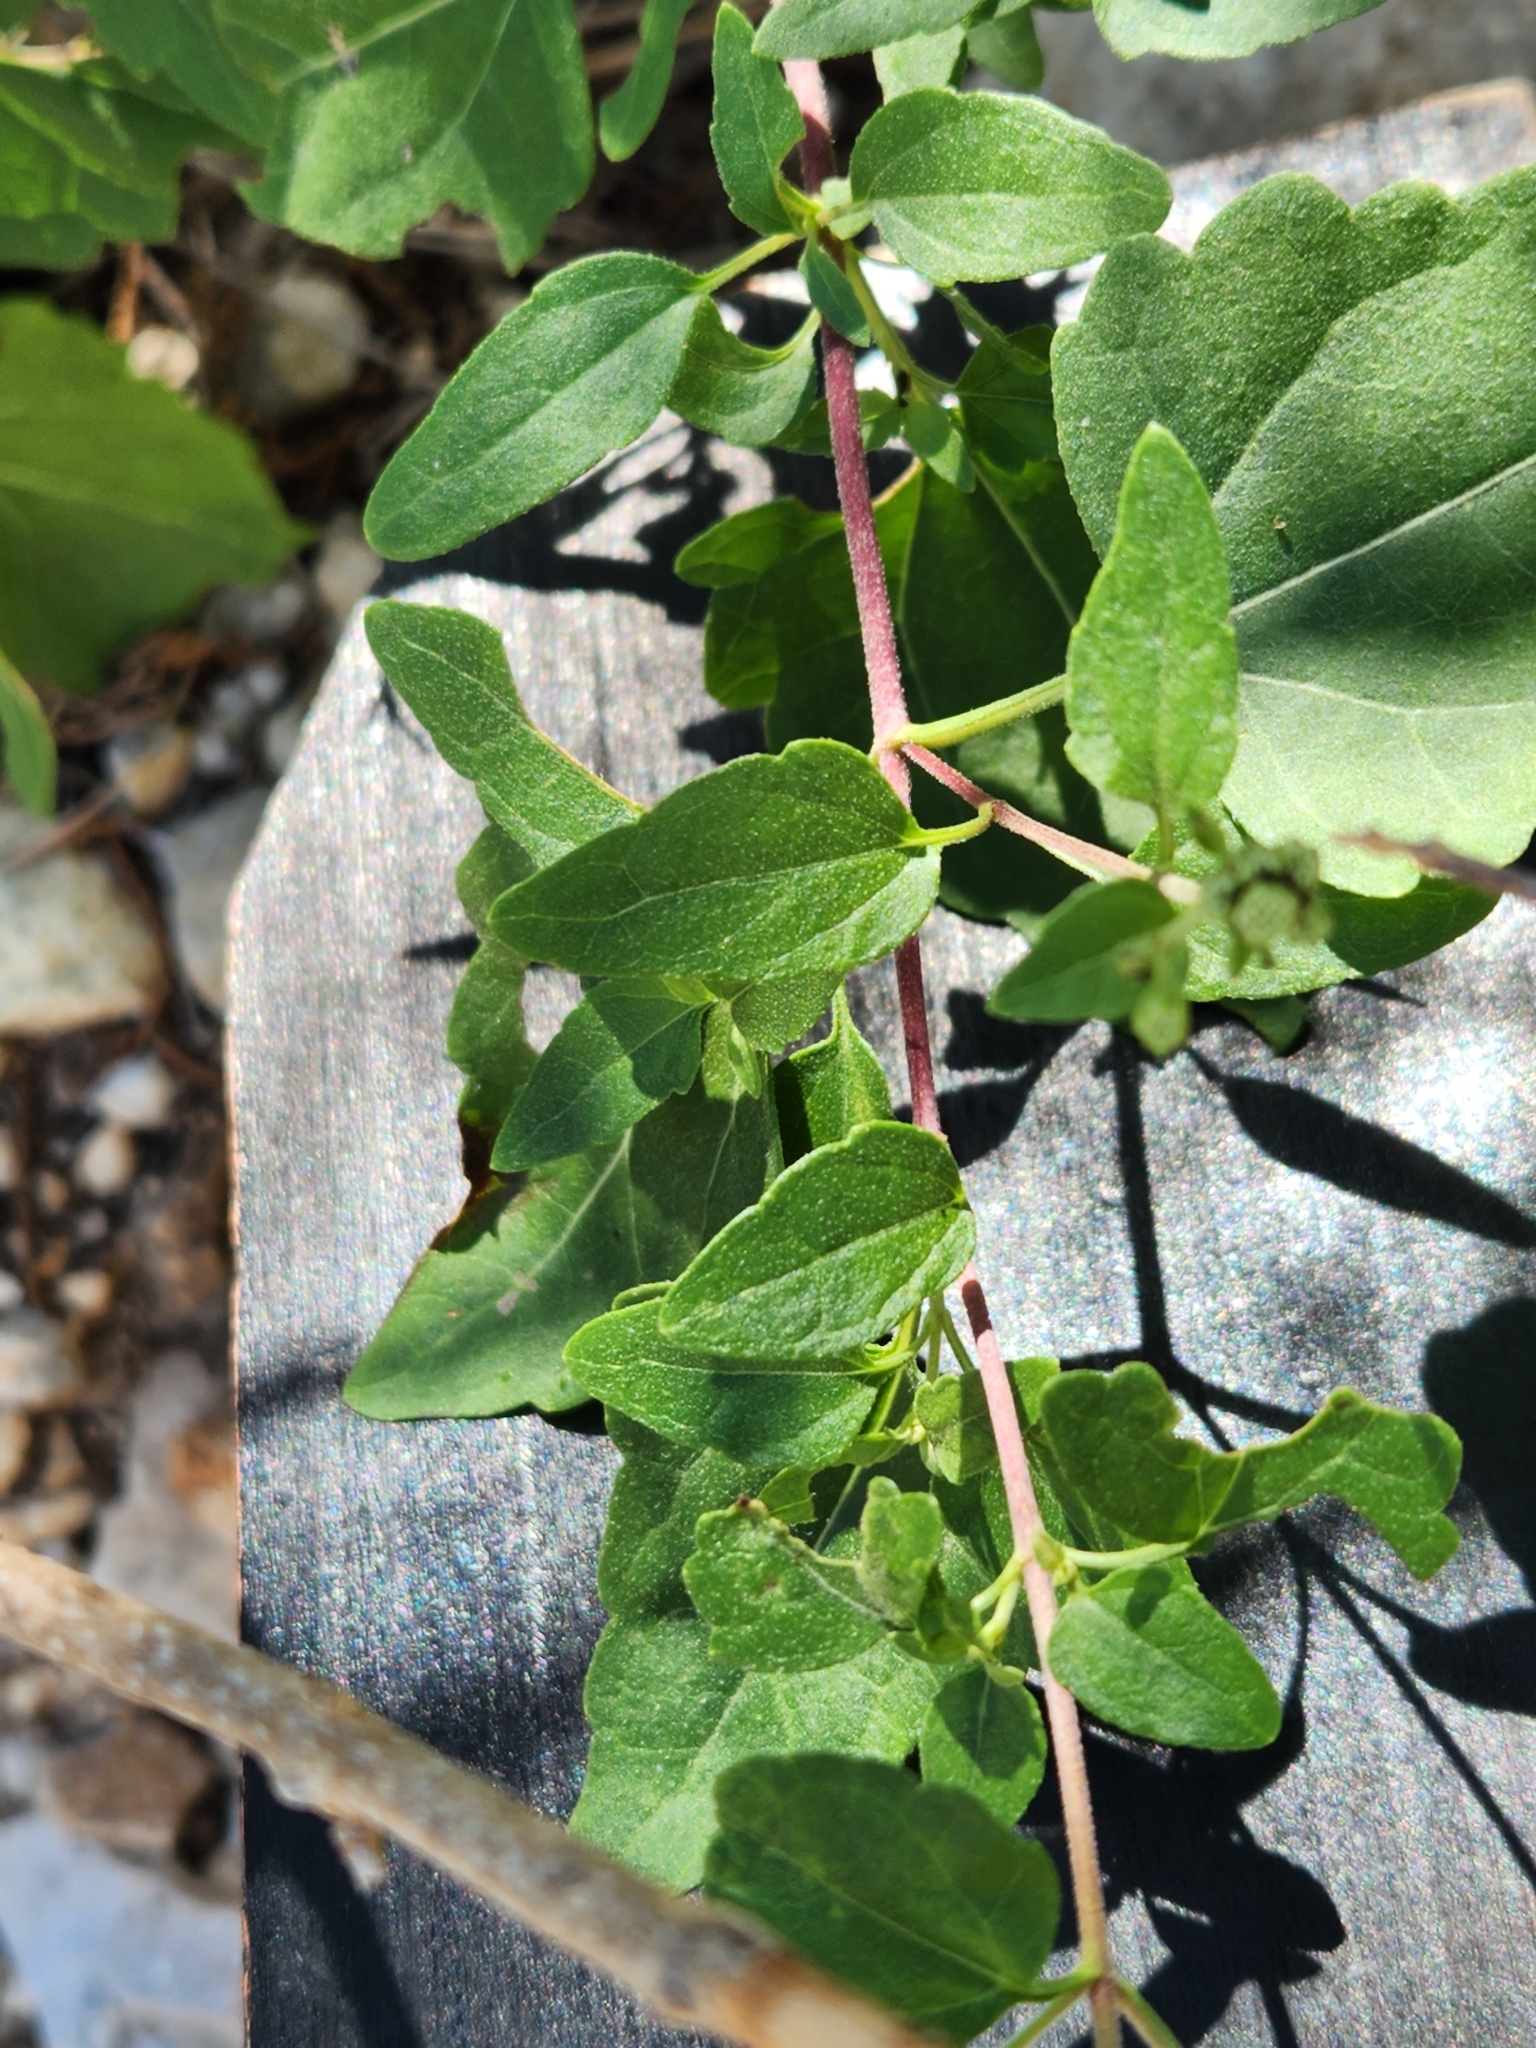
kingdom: Plantae
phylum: Tracheophyta
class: Magnoliopsida
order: Asterales
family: Asteraceae
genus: Ageratina
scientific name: Ageratina havanensis
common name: Havana snakeroot
